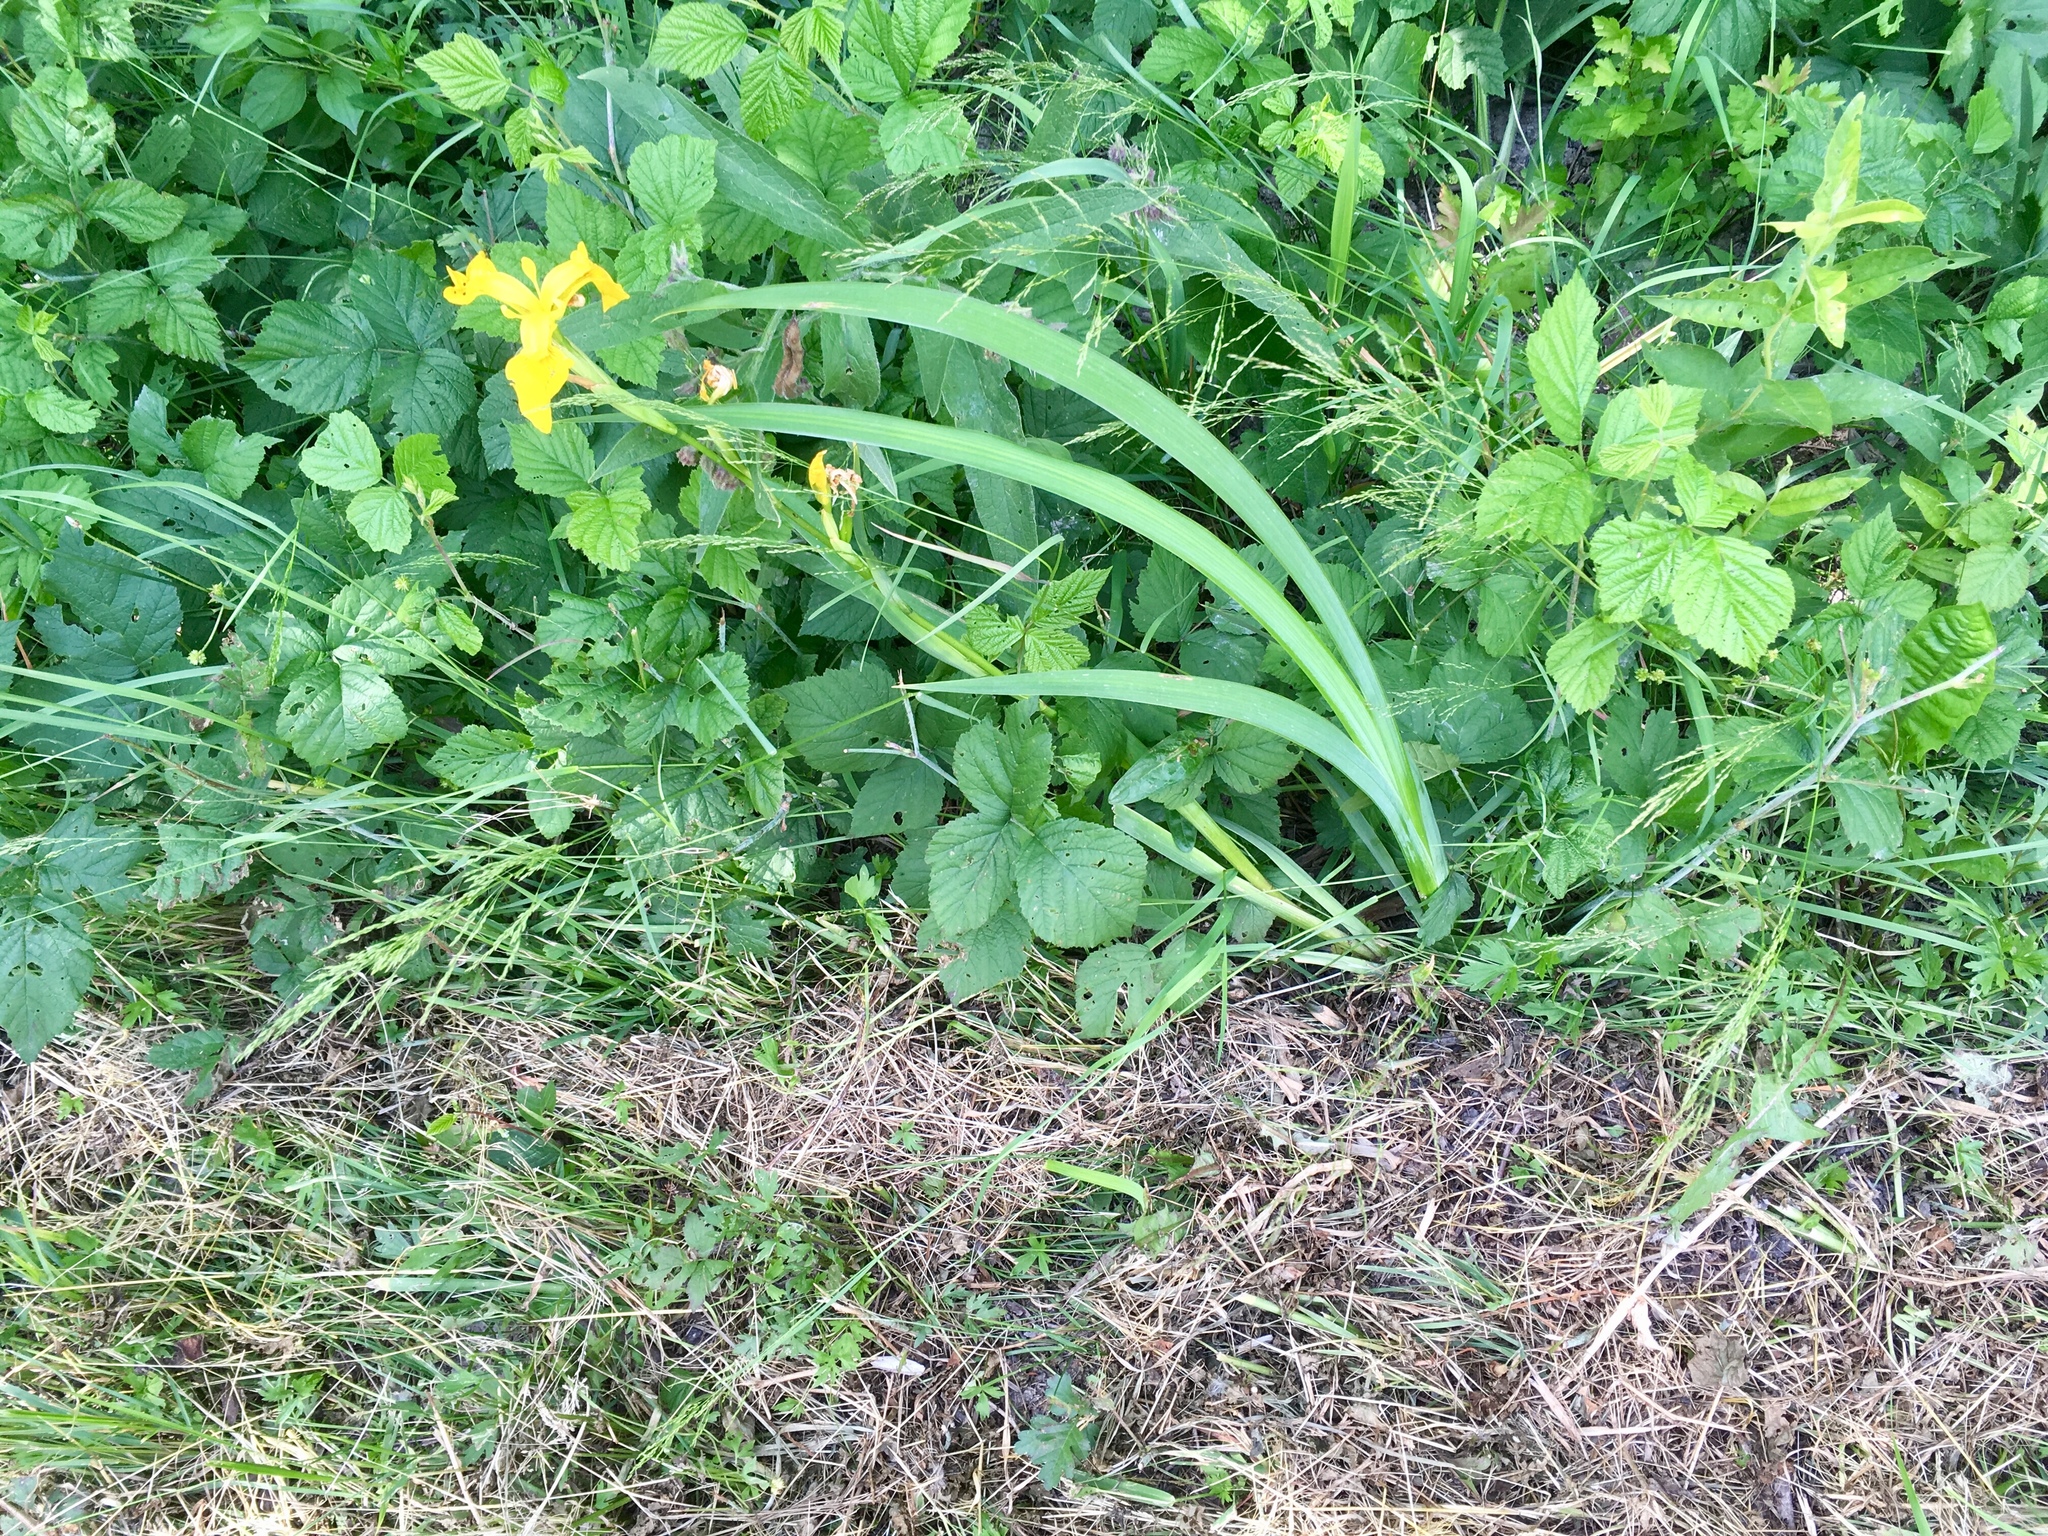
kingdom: Plantae
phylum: Tracheophyta
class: Liliopsida
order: Asparagales
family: Iridaceae
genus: Iris
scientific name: Iris pseudacorus
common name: Yellow flag
